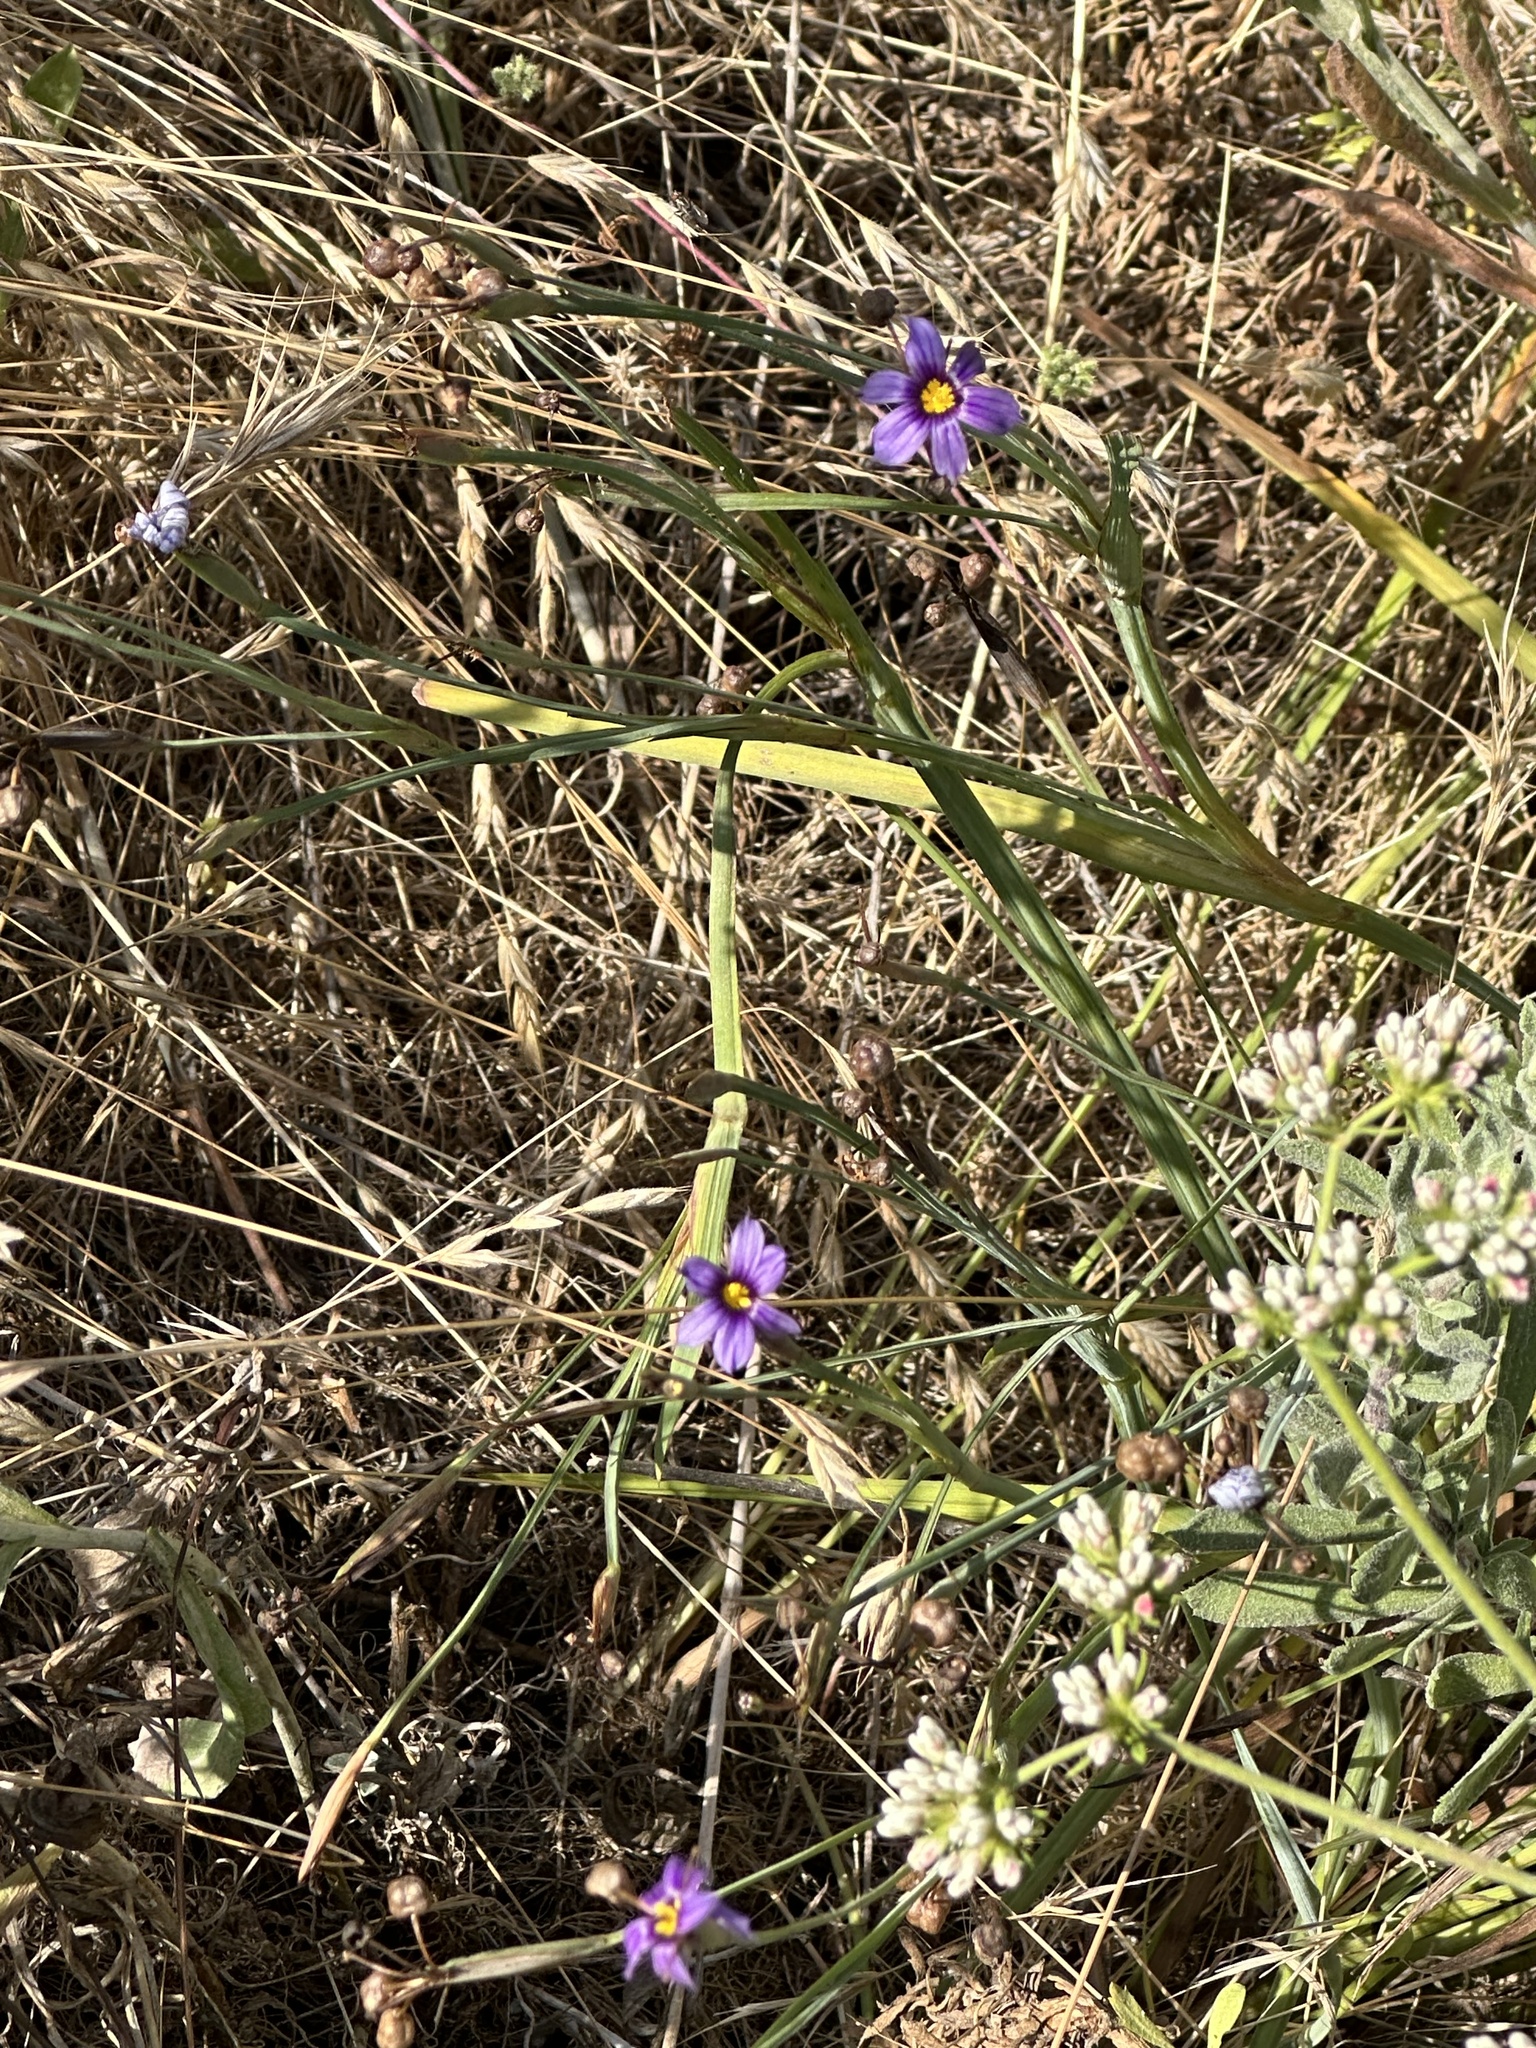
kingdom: Plantae
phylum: Tracheophyta
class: Liliopsida
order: Asparagales
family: Iridaceae
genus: Sisyrinchium
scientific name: Sisyrinchium bellum
